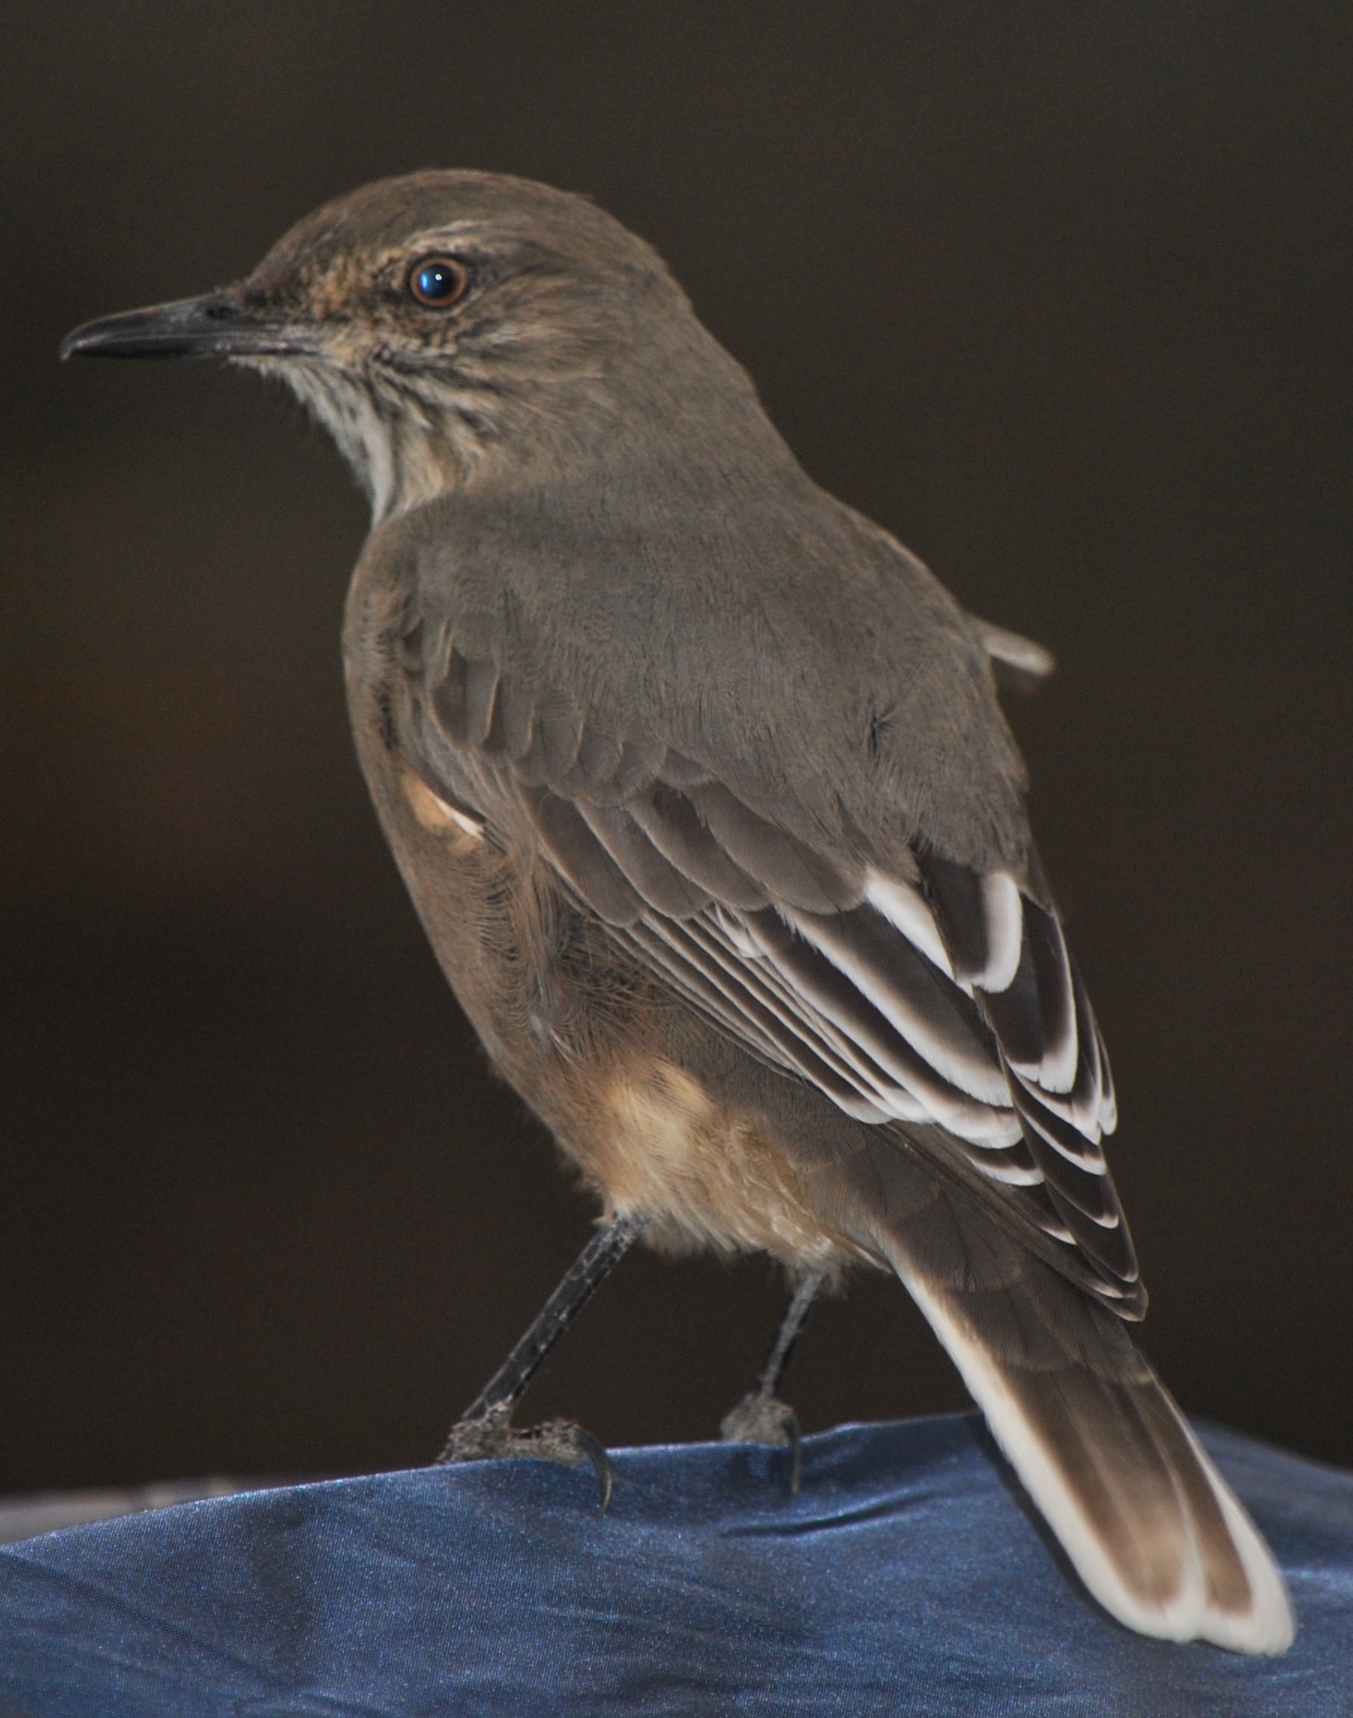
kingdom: Animalia
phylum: Chordata
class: Aves
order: Passeriformes
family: Tyrannidae
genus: Agriornis
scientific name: Agriornis montanus
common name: Black-billed shrike-tyrant
